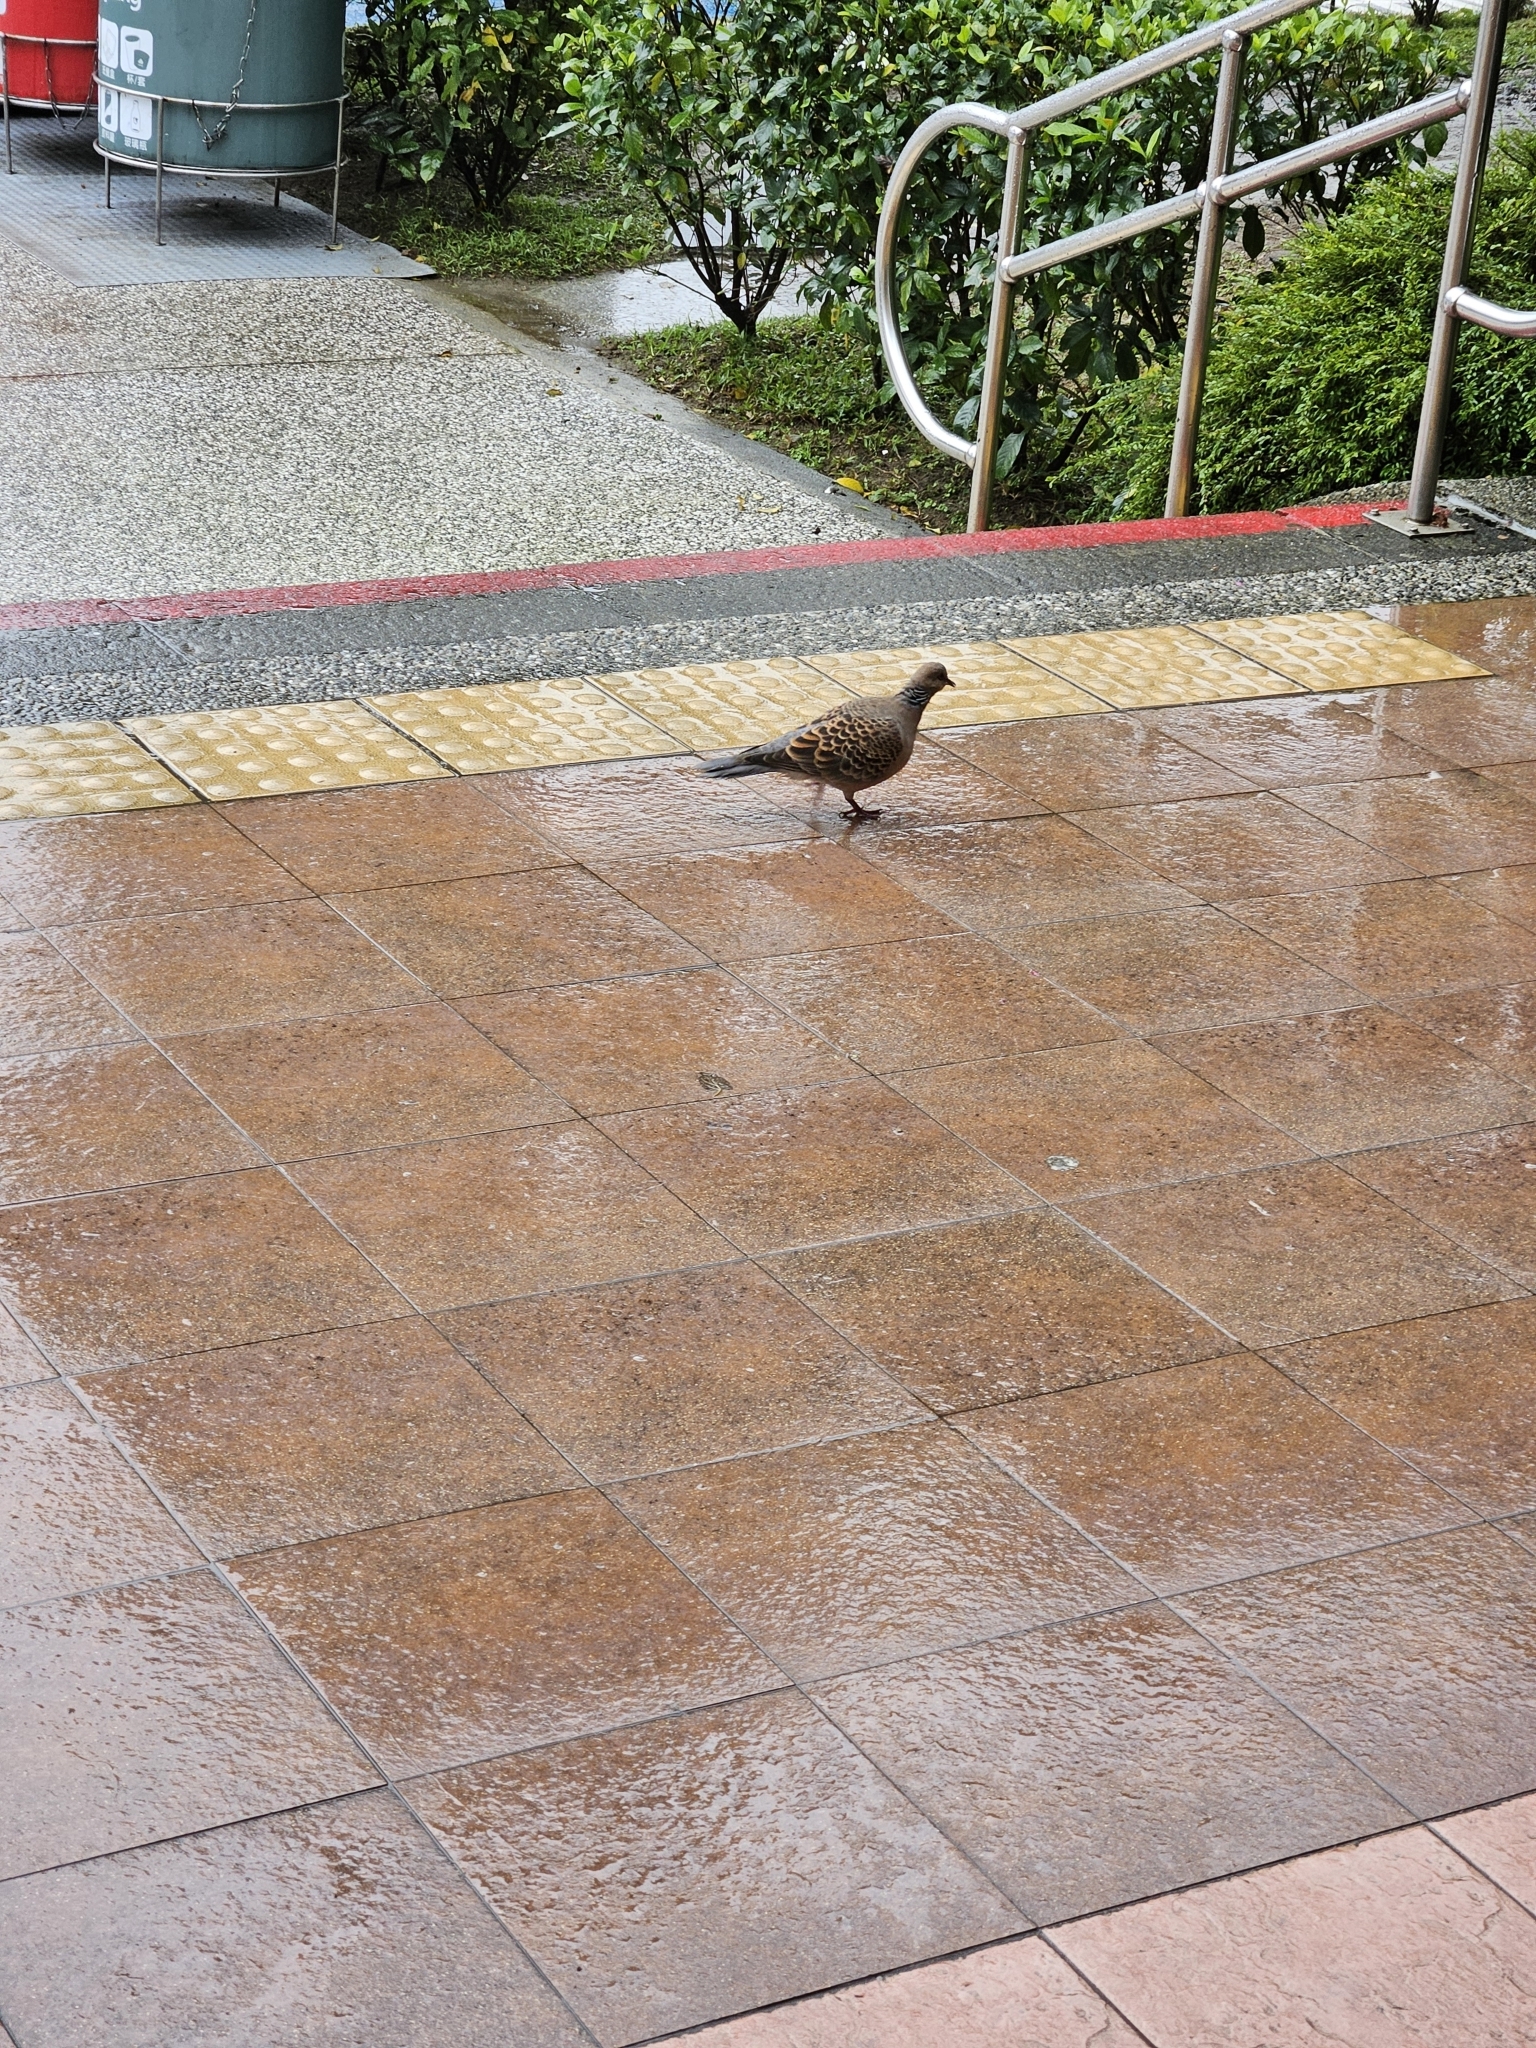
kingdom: Animalia
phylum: Chordata
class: Aves
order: Columbiformes
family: Columbidae
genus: Streptopelia
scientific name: Streptopelia orientalis
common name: Oriental turtle dove
